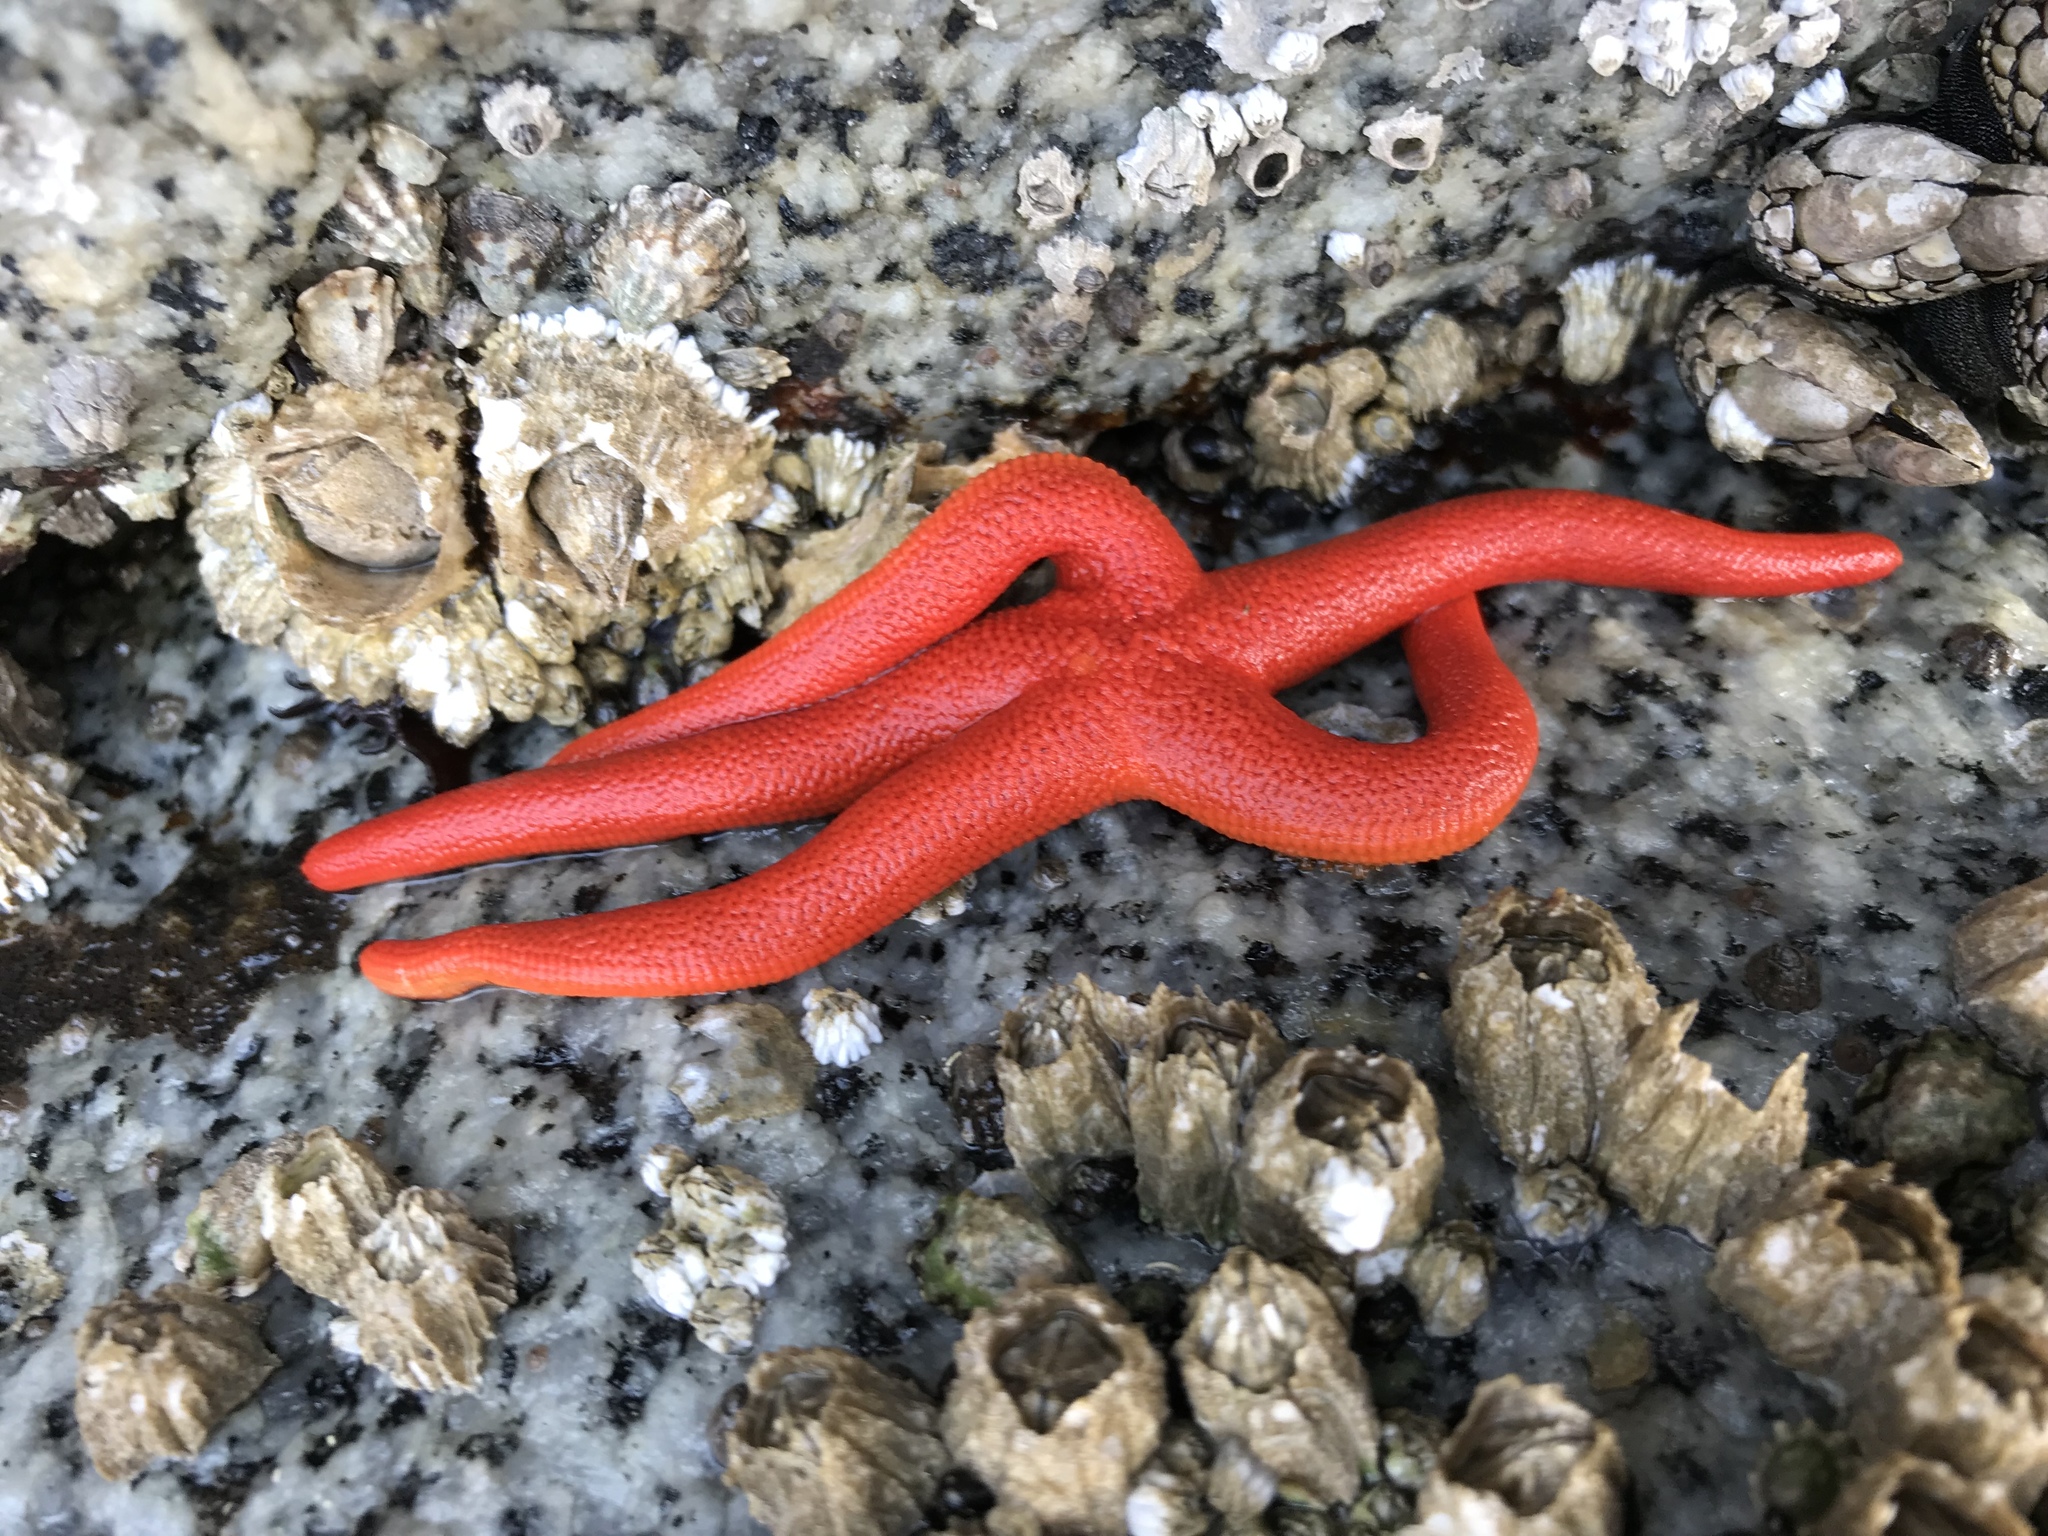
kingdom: Animalia
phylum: Echinodermata
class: Asteroidea
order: Spinulosida
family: Echinasteridae
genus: Henricia
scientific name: Henricia leviuscula
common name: Pacific blood star
